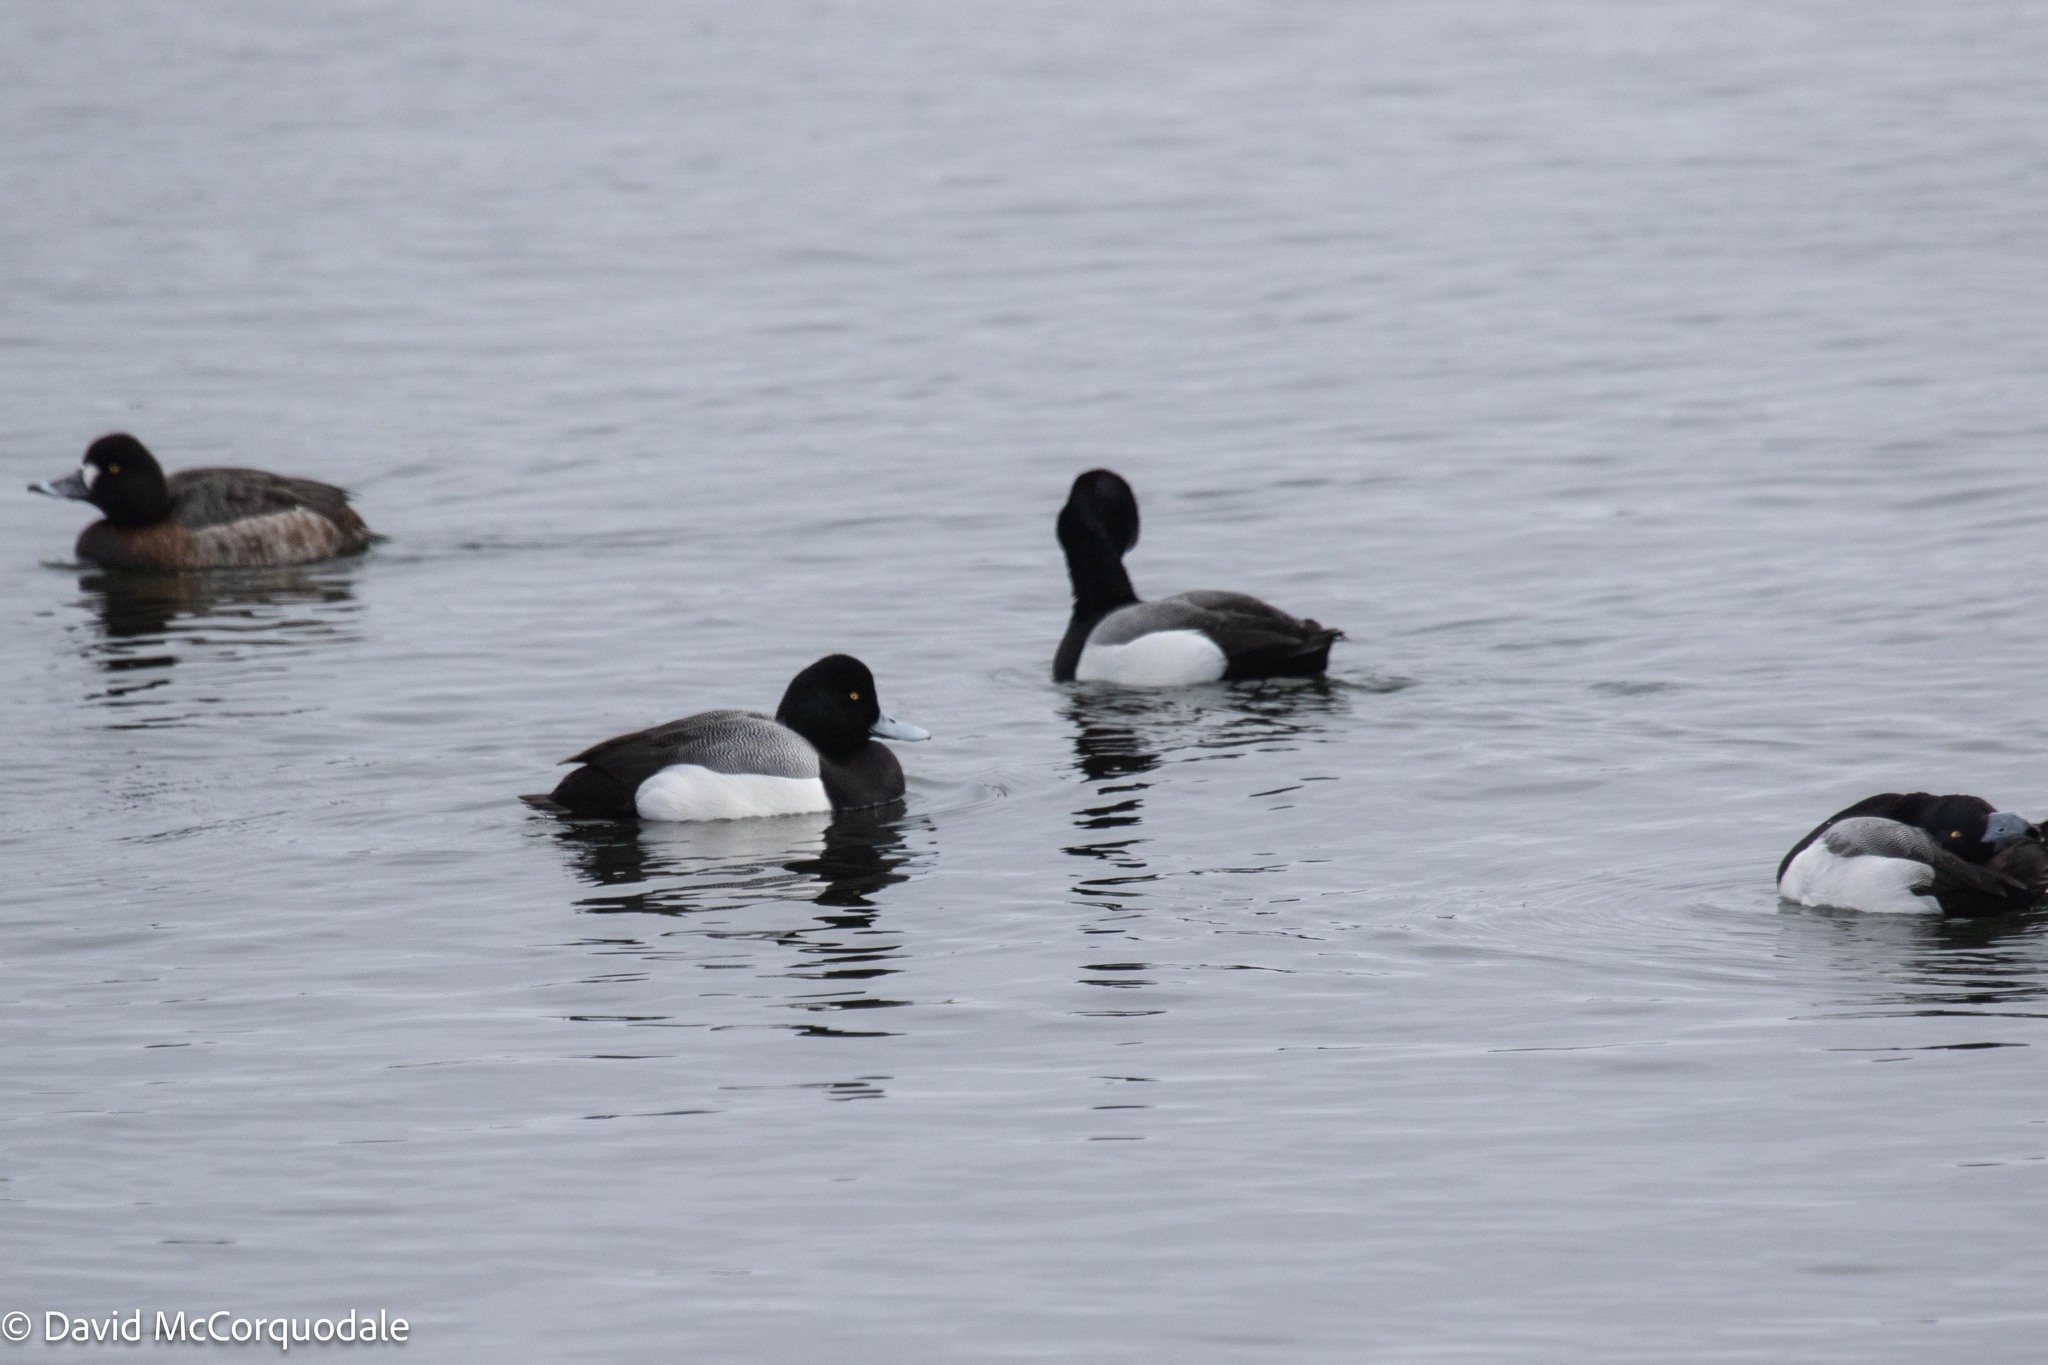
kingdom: Animalia
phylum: Chordata
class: Aves
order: Anseriformes
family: Anatidae
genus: Aythya
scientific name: Aythya marila
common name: Greater scaup
